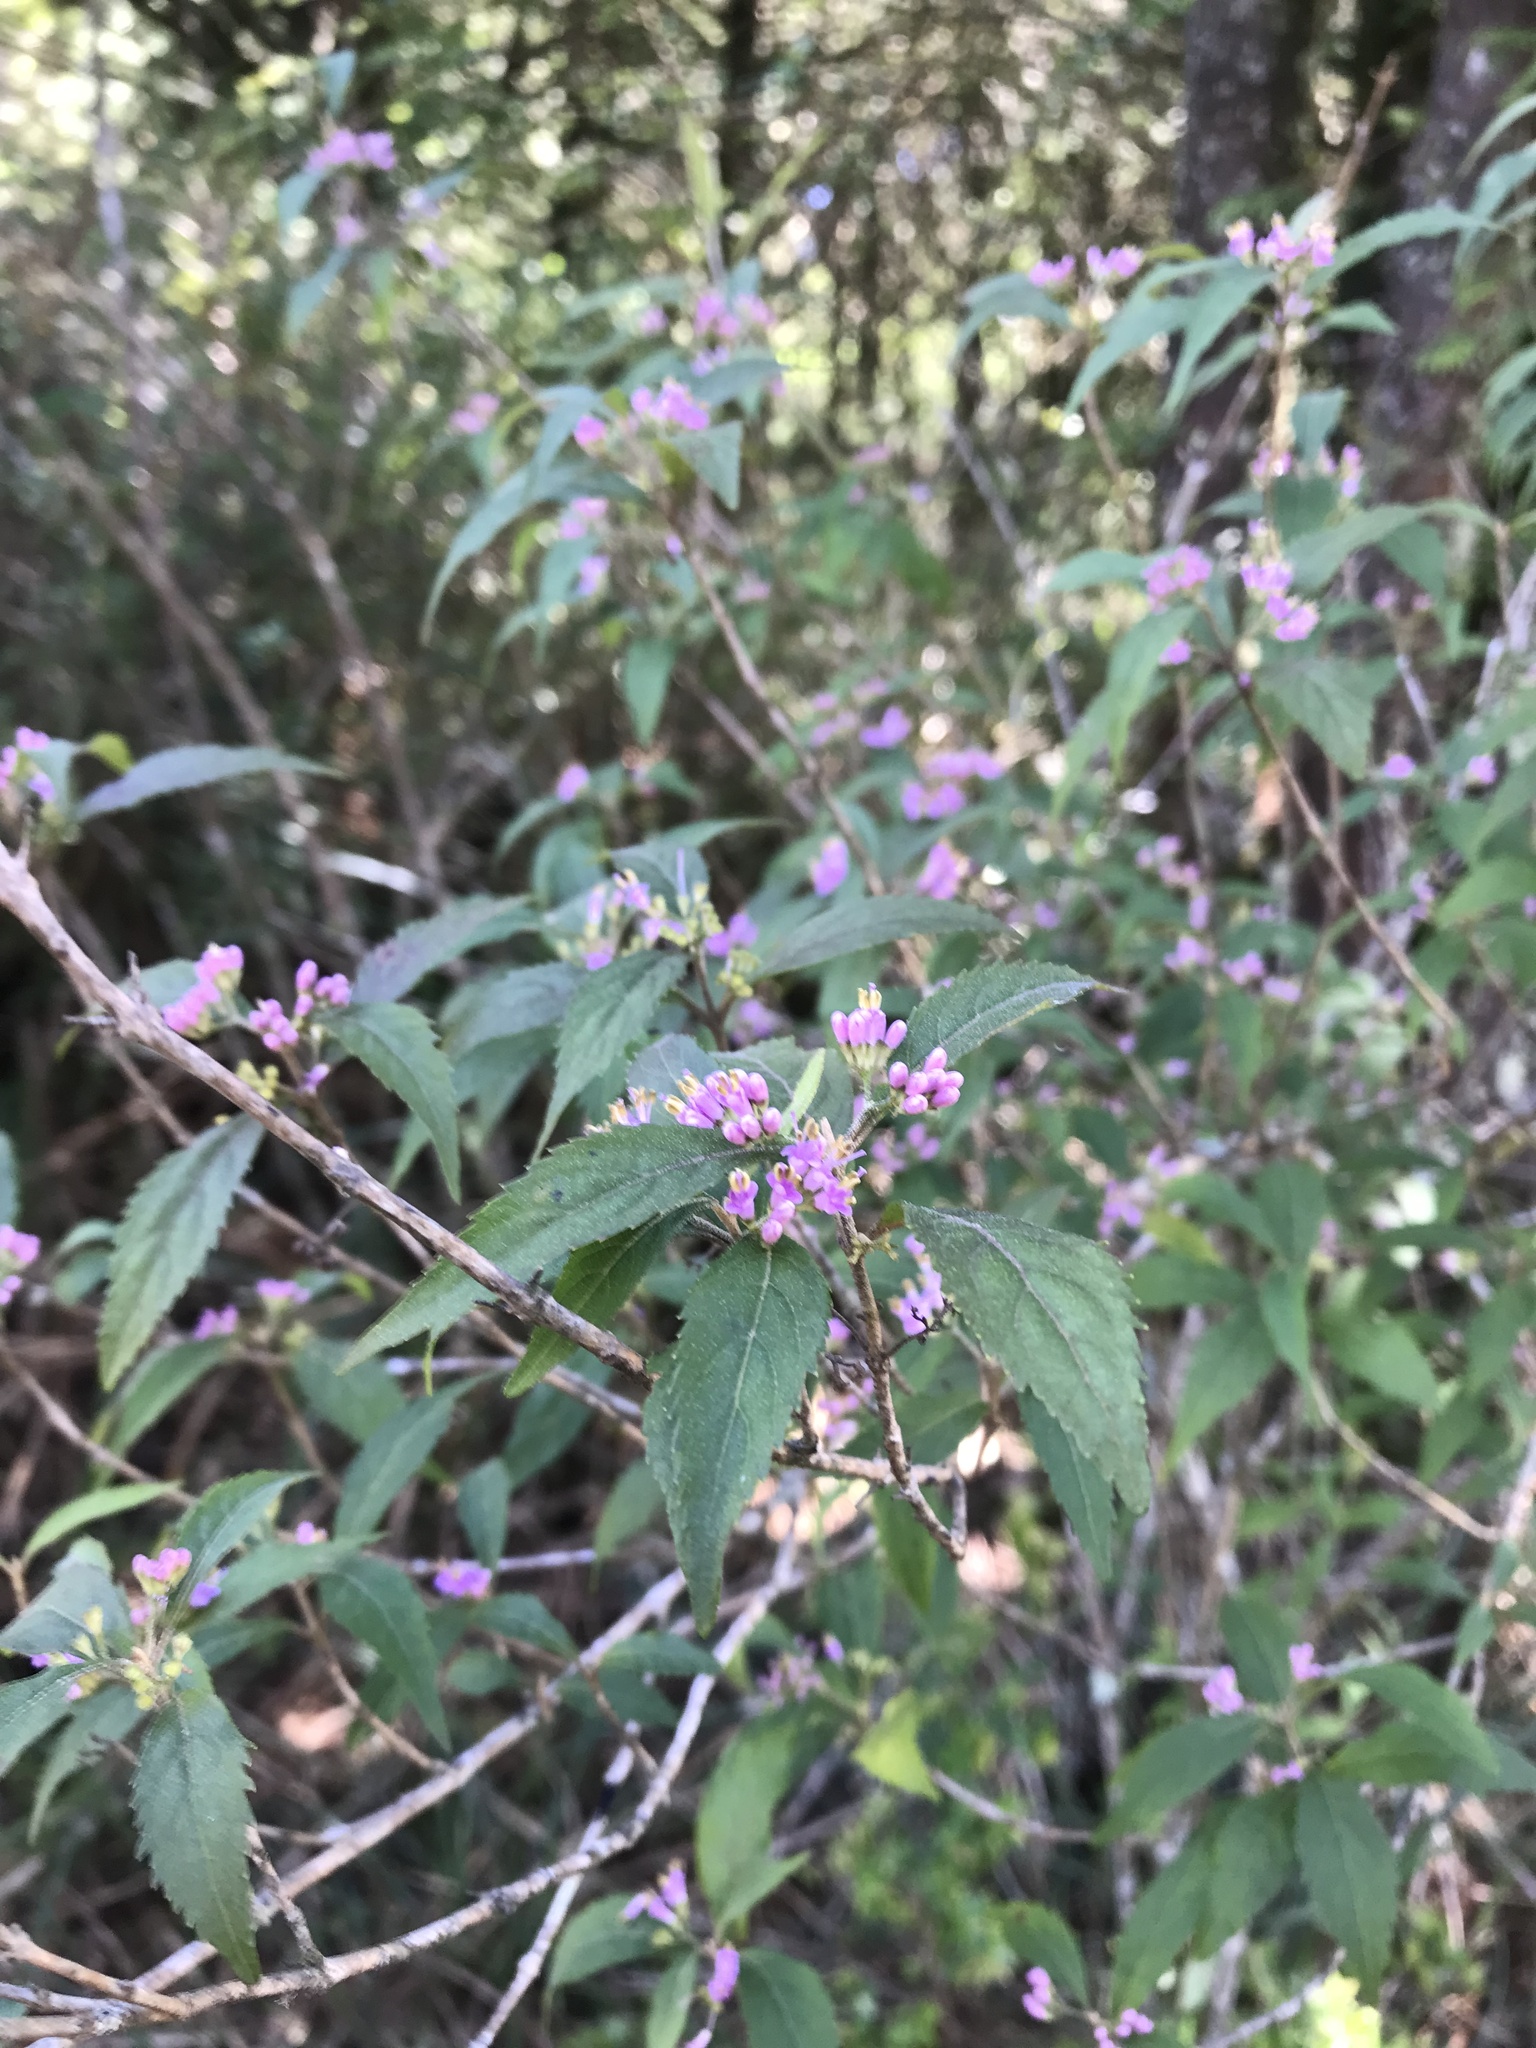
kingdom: Plantae
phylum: Tracheophyta
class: Magnoliopsida
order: Lamiales
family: Lamiaceae
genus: Callicarpa
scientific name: Callicarpa randaiensis
